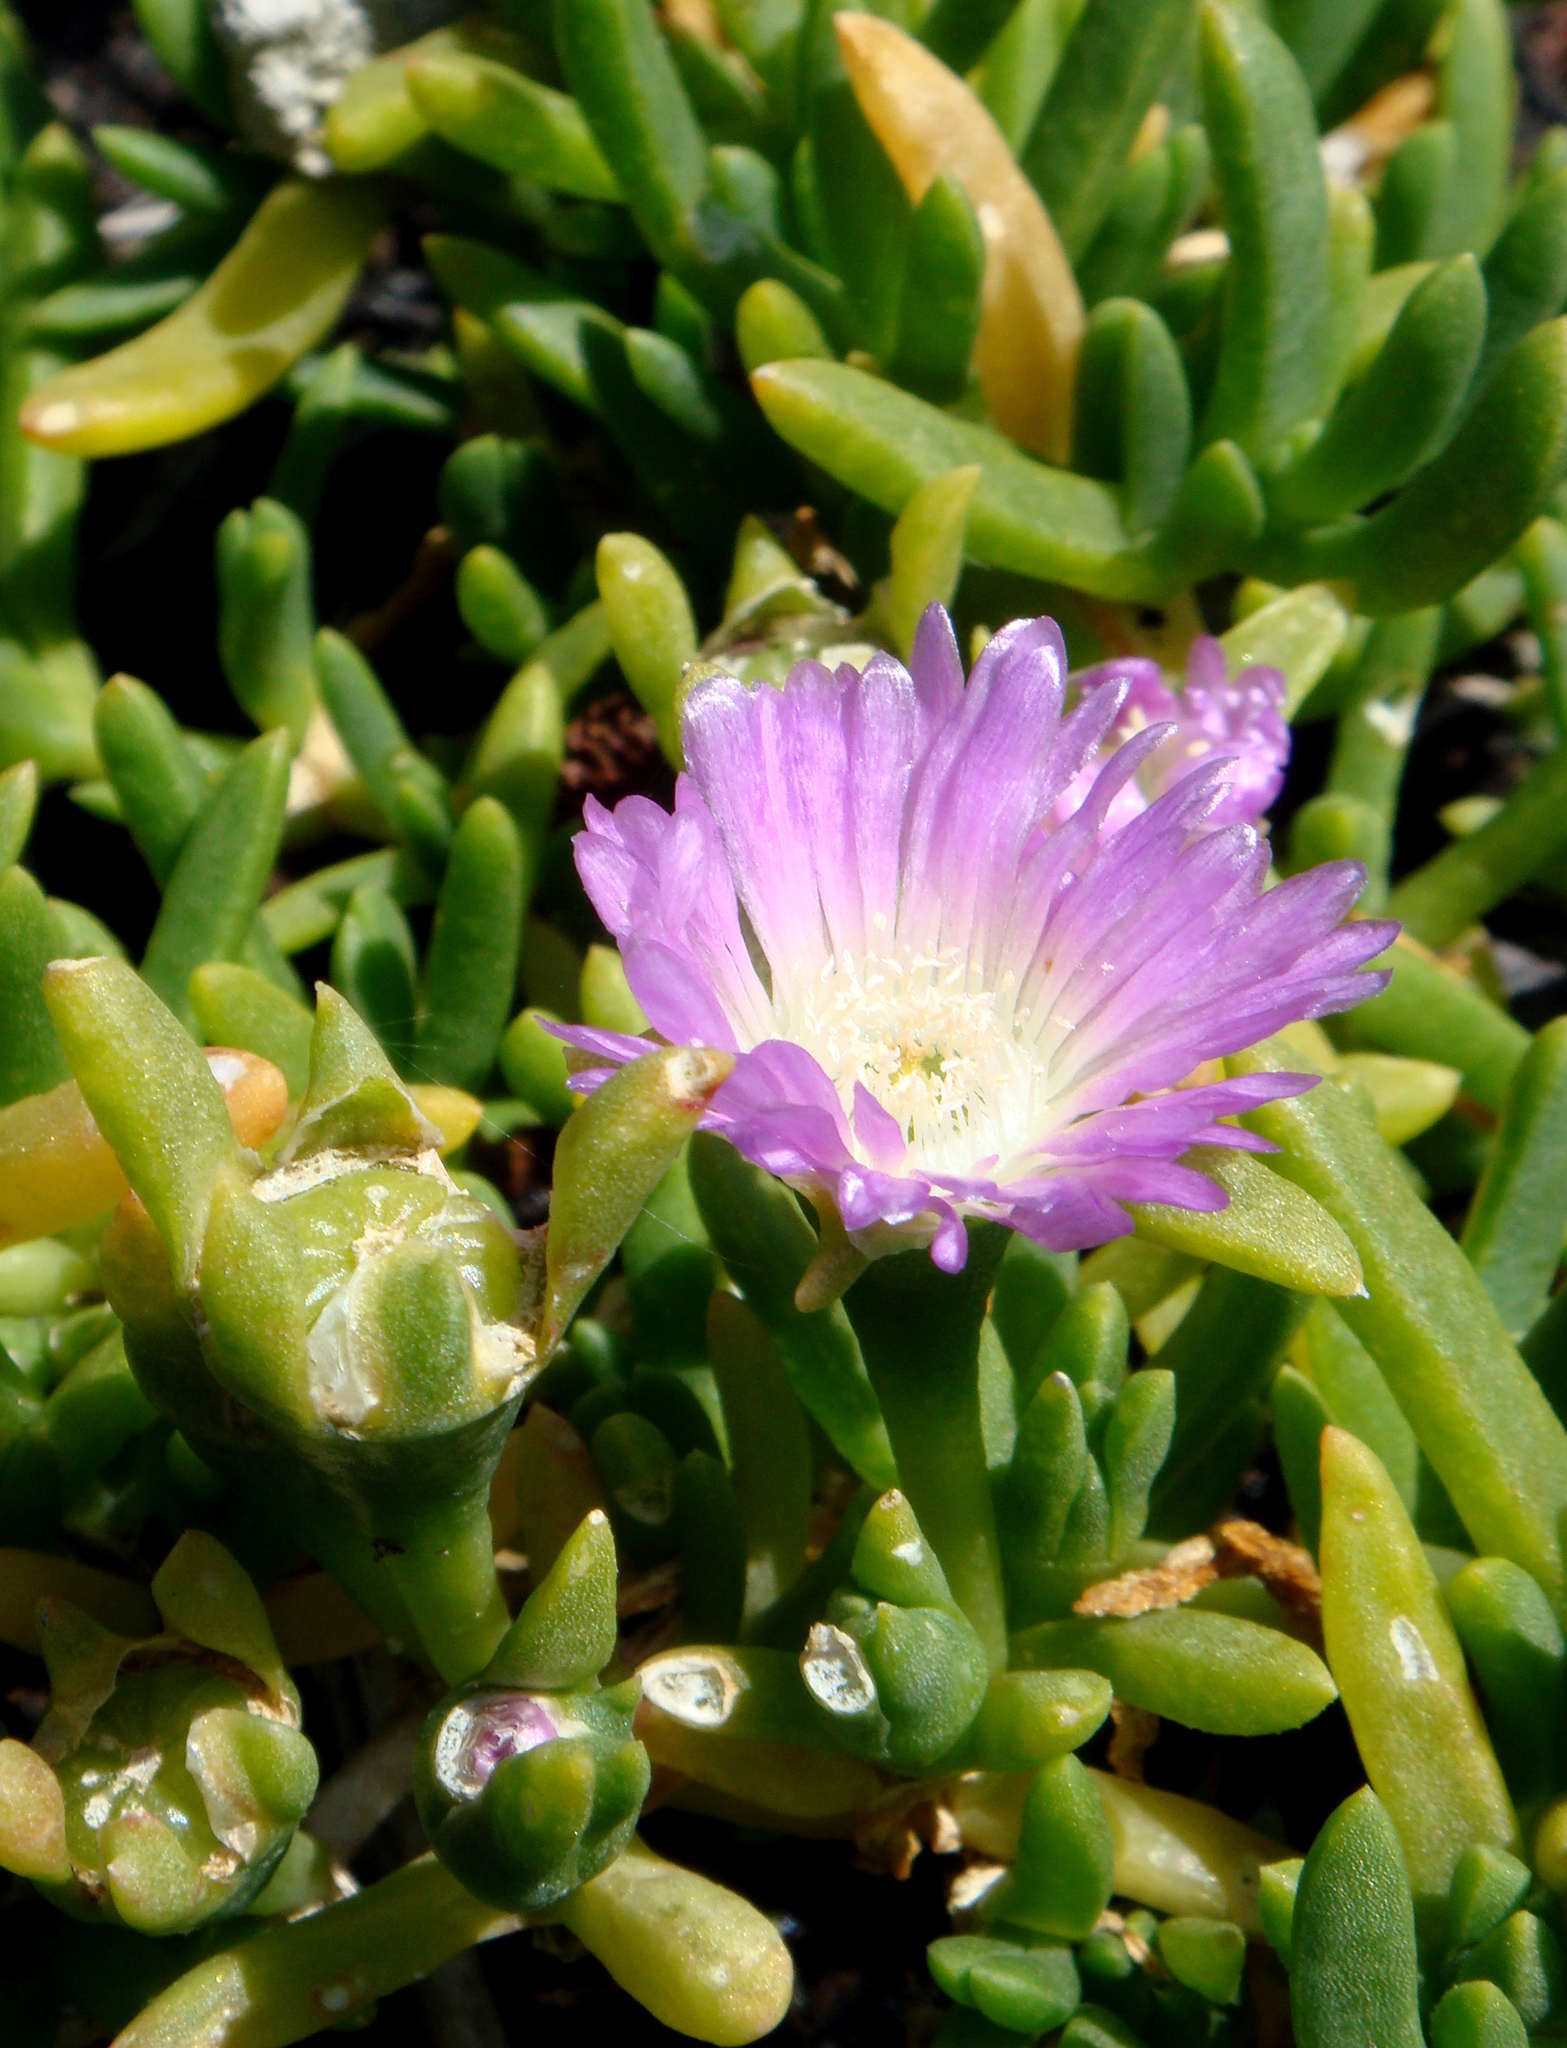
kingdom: Plantae
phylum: Tracheophyta
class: Magnoliopsida
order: Caryophyllales
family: Aizoaceae
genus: Disphyma
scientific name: Disphyma australe
